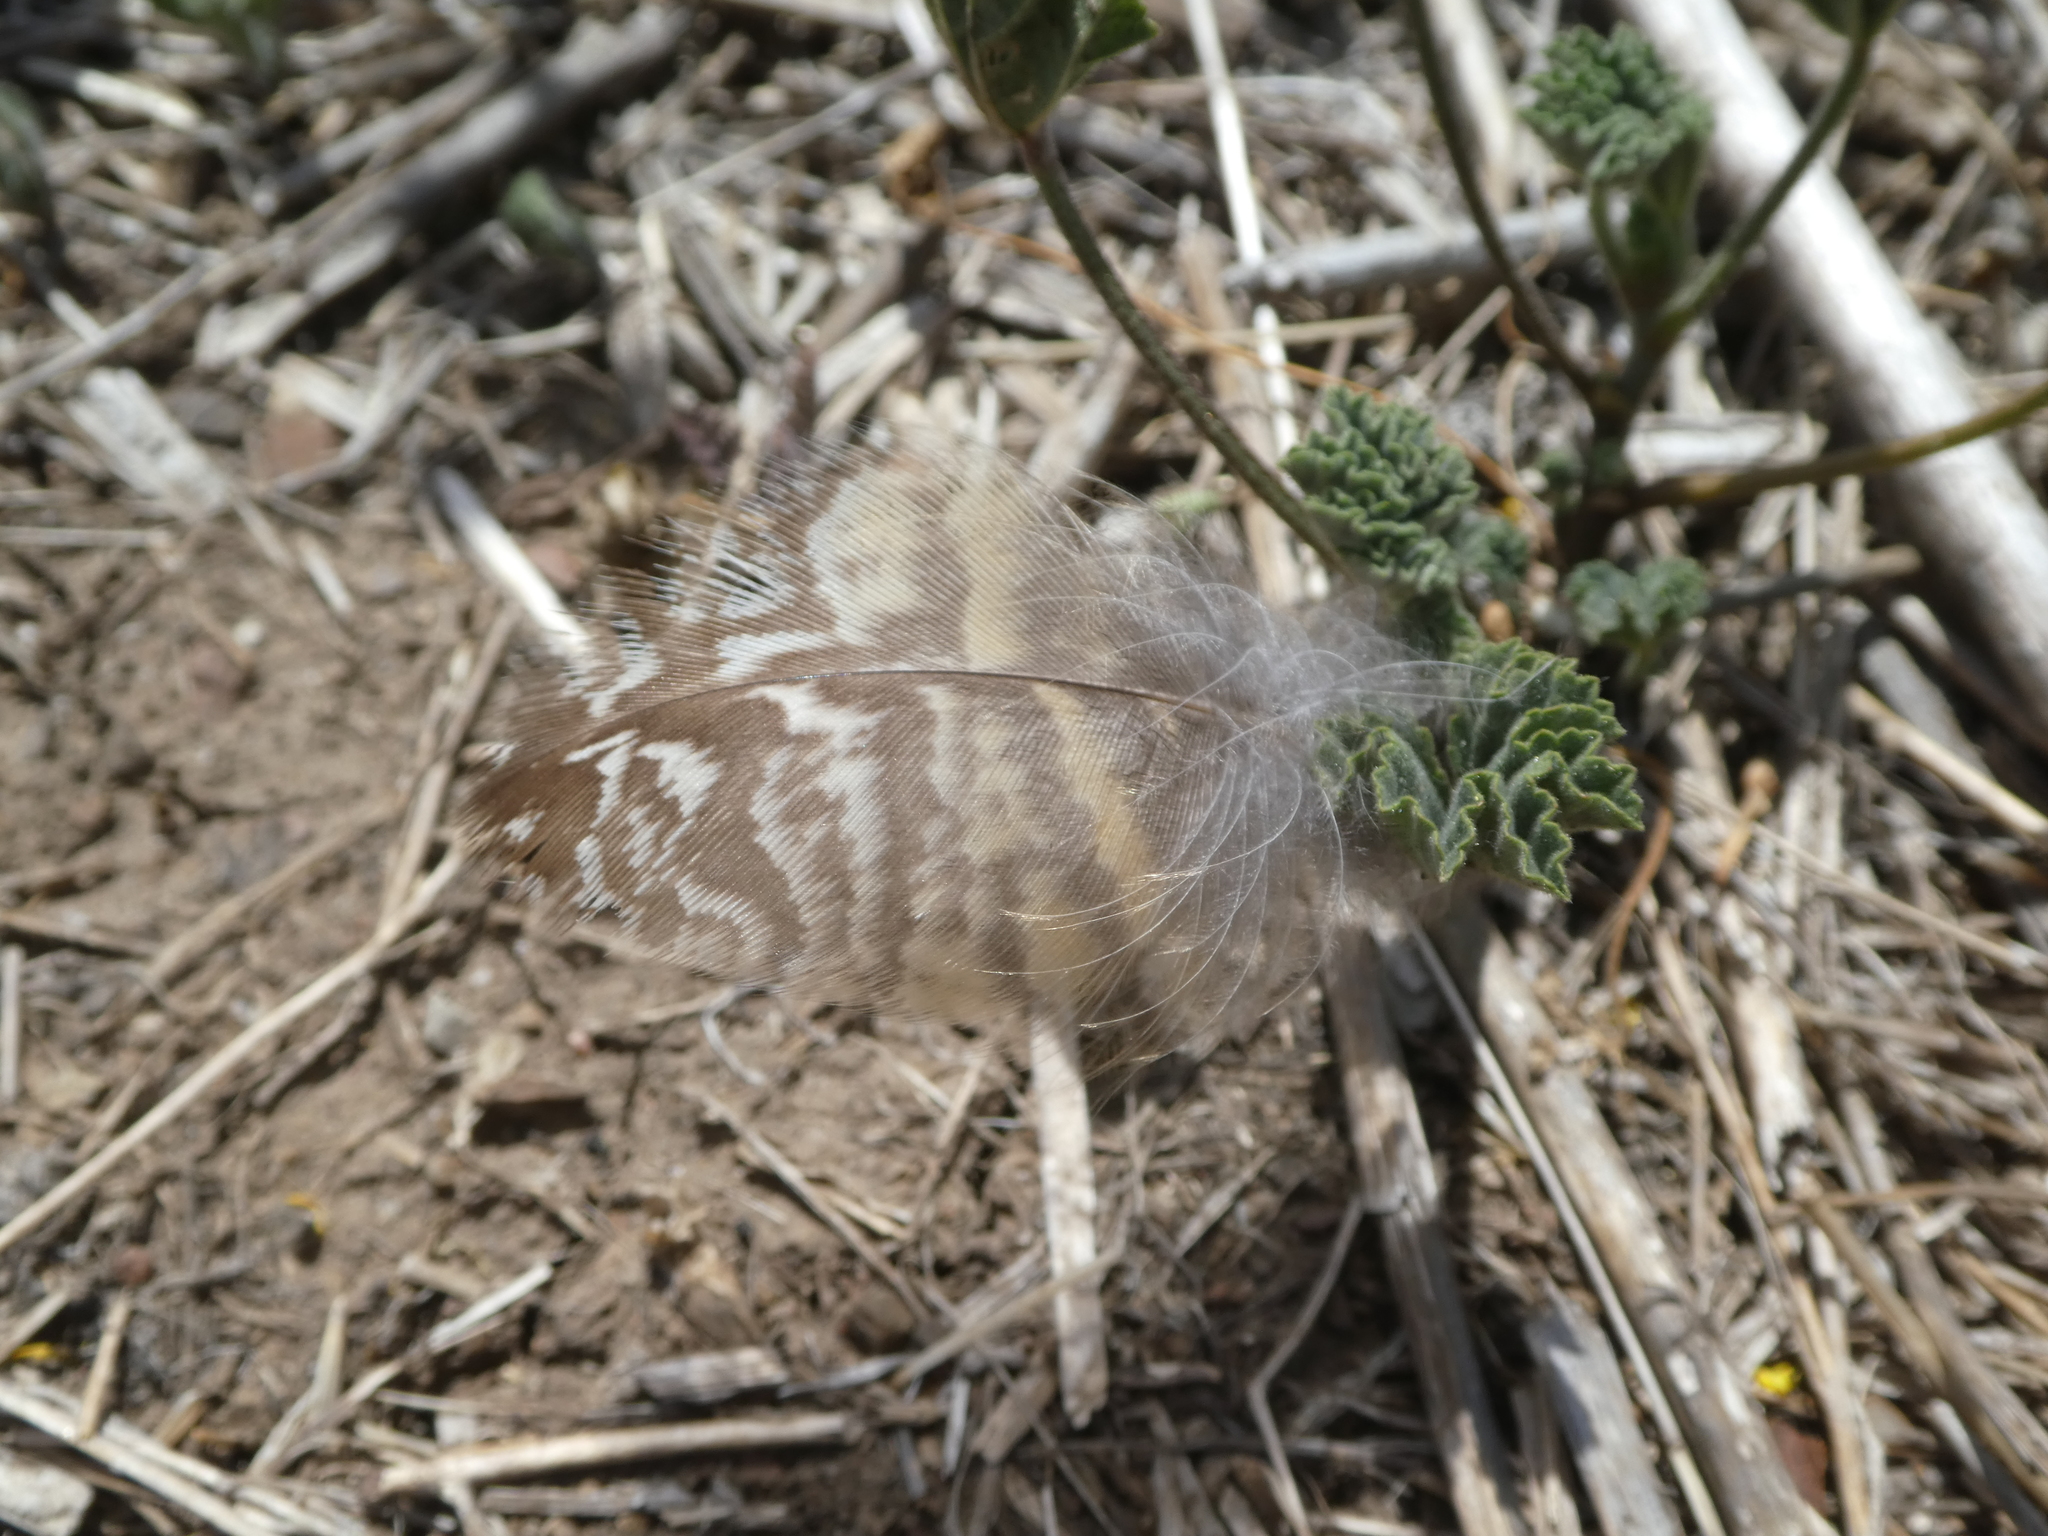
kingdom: Animalia
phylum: Chordata
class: Aves
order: Strigiformes
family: Strigidae
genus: Bubo
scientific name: Bubo virginianus
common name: Great horned owl
